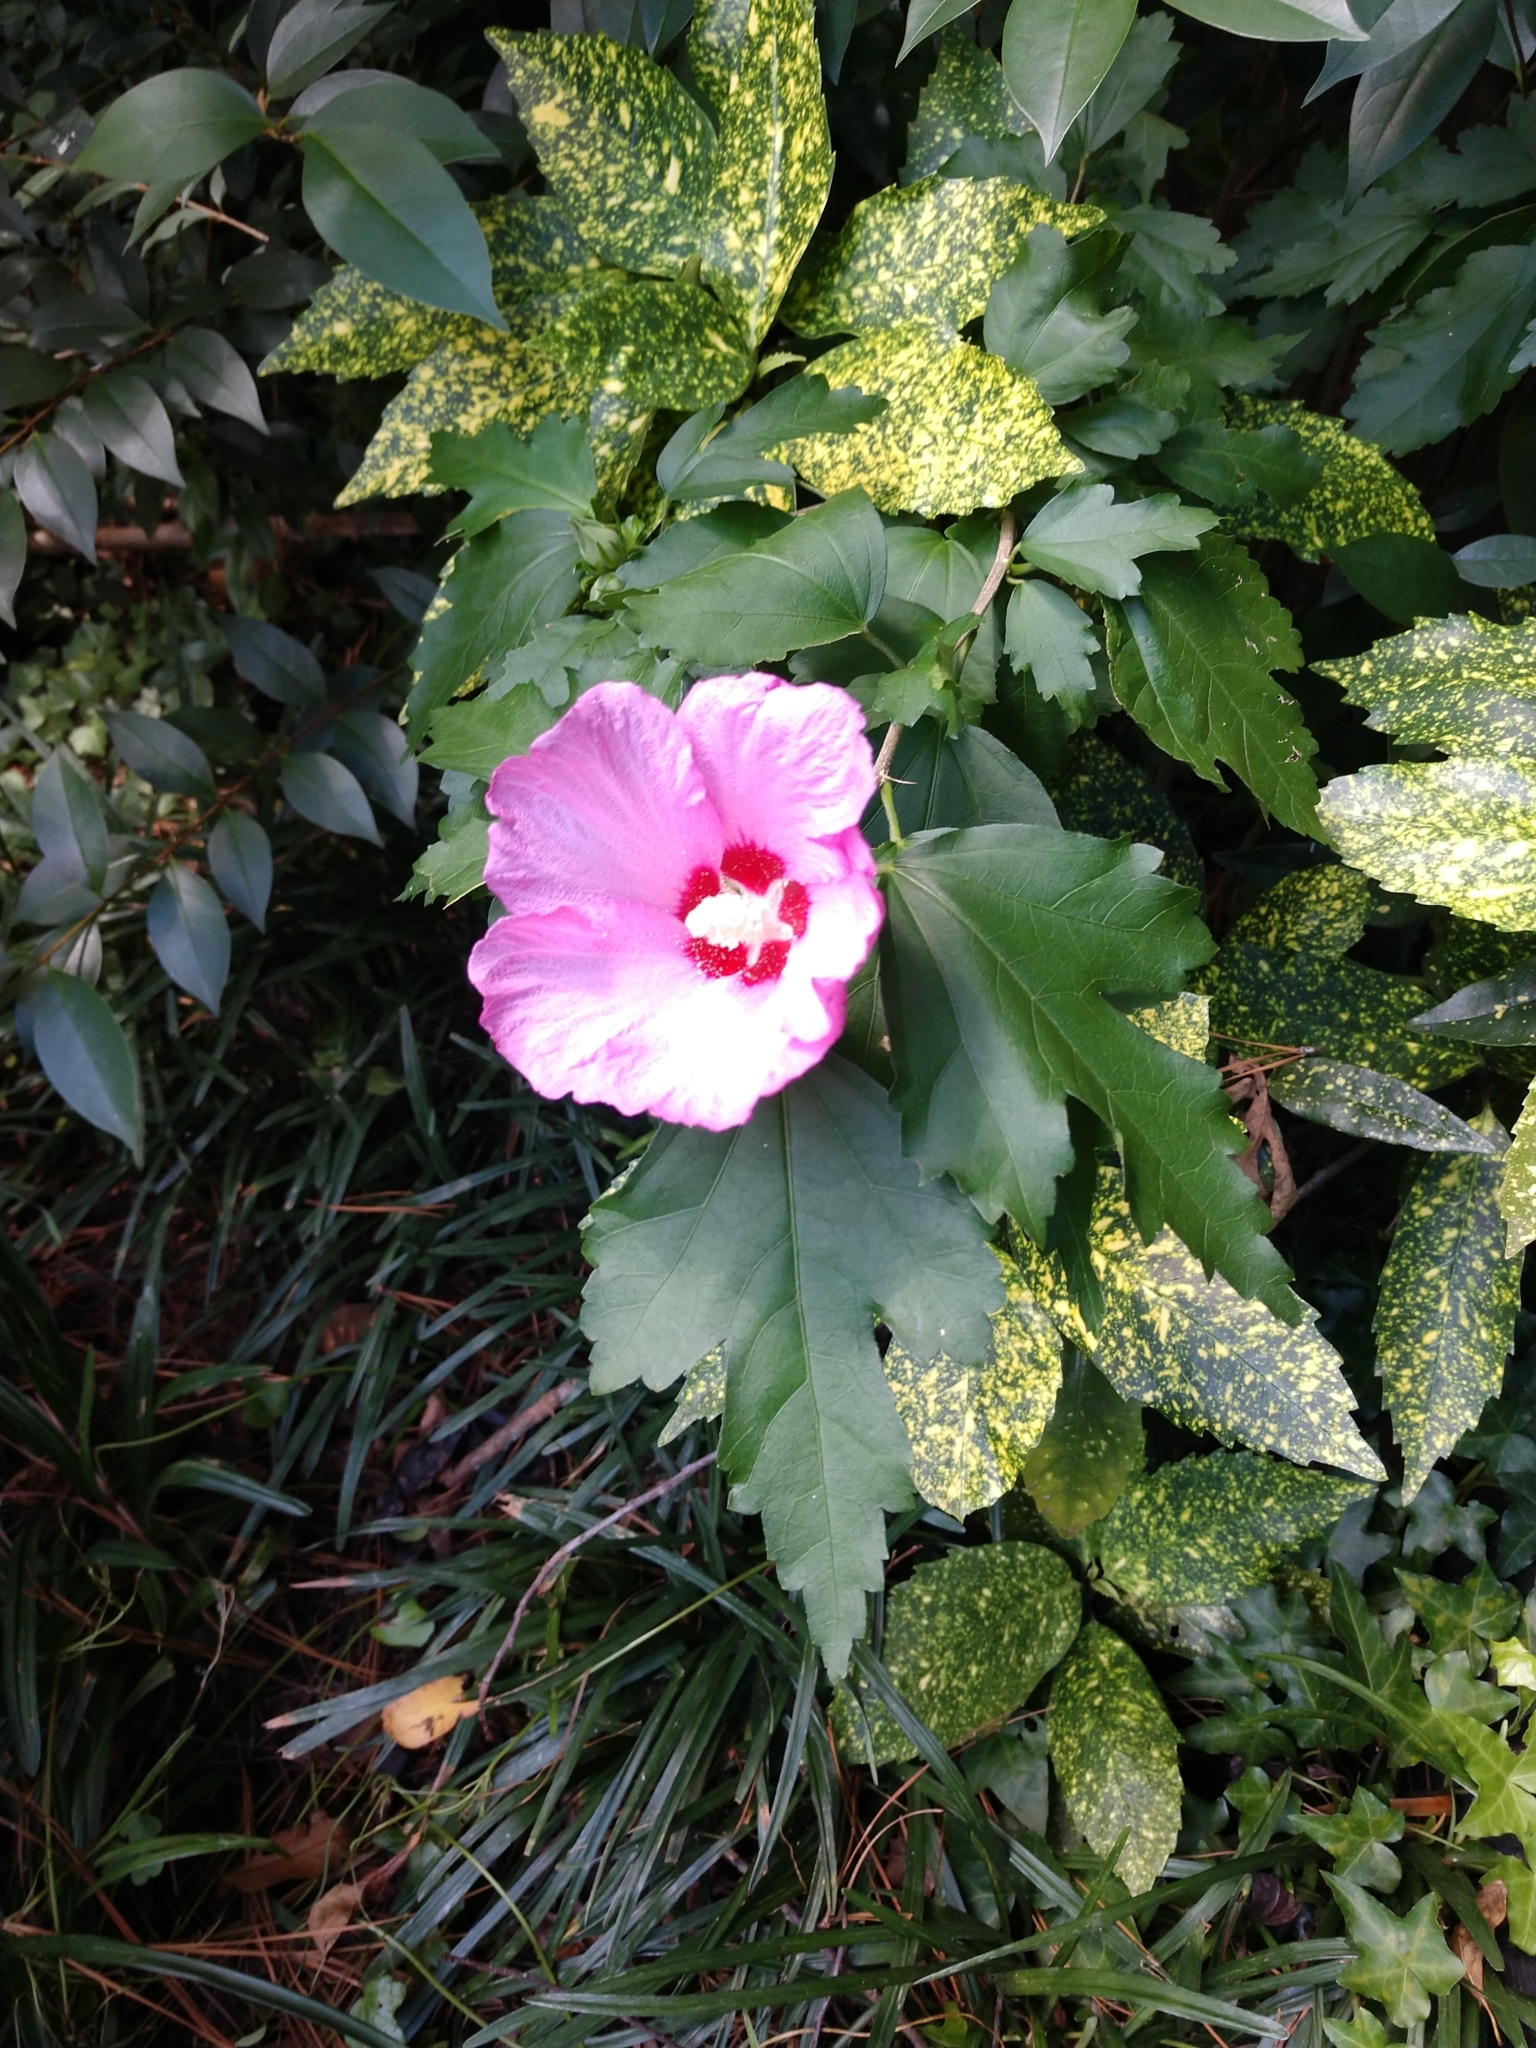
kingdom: Plantae
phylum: Tracheophyta
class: Magnoliopsida
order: Malvales
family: Malvaceae
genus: Hibiscus
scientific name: Hibiscus syriacus
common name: Syrian ketmia
